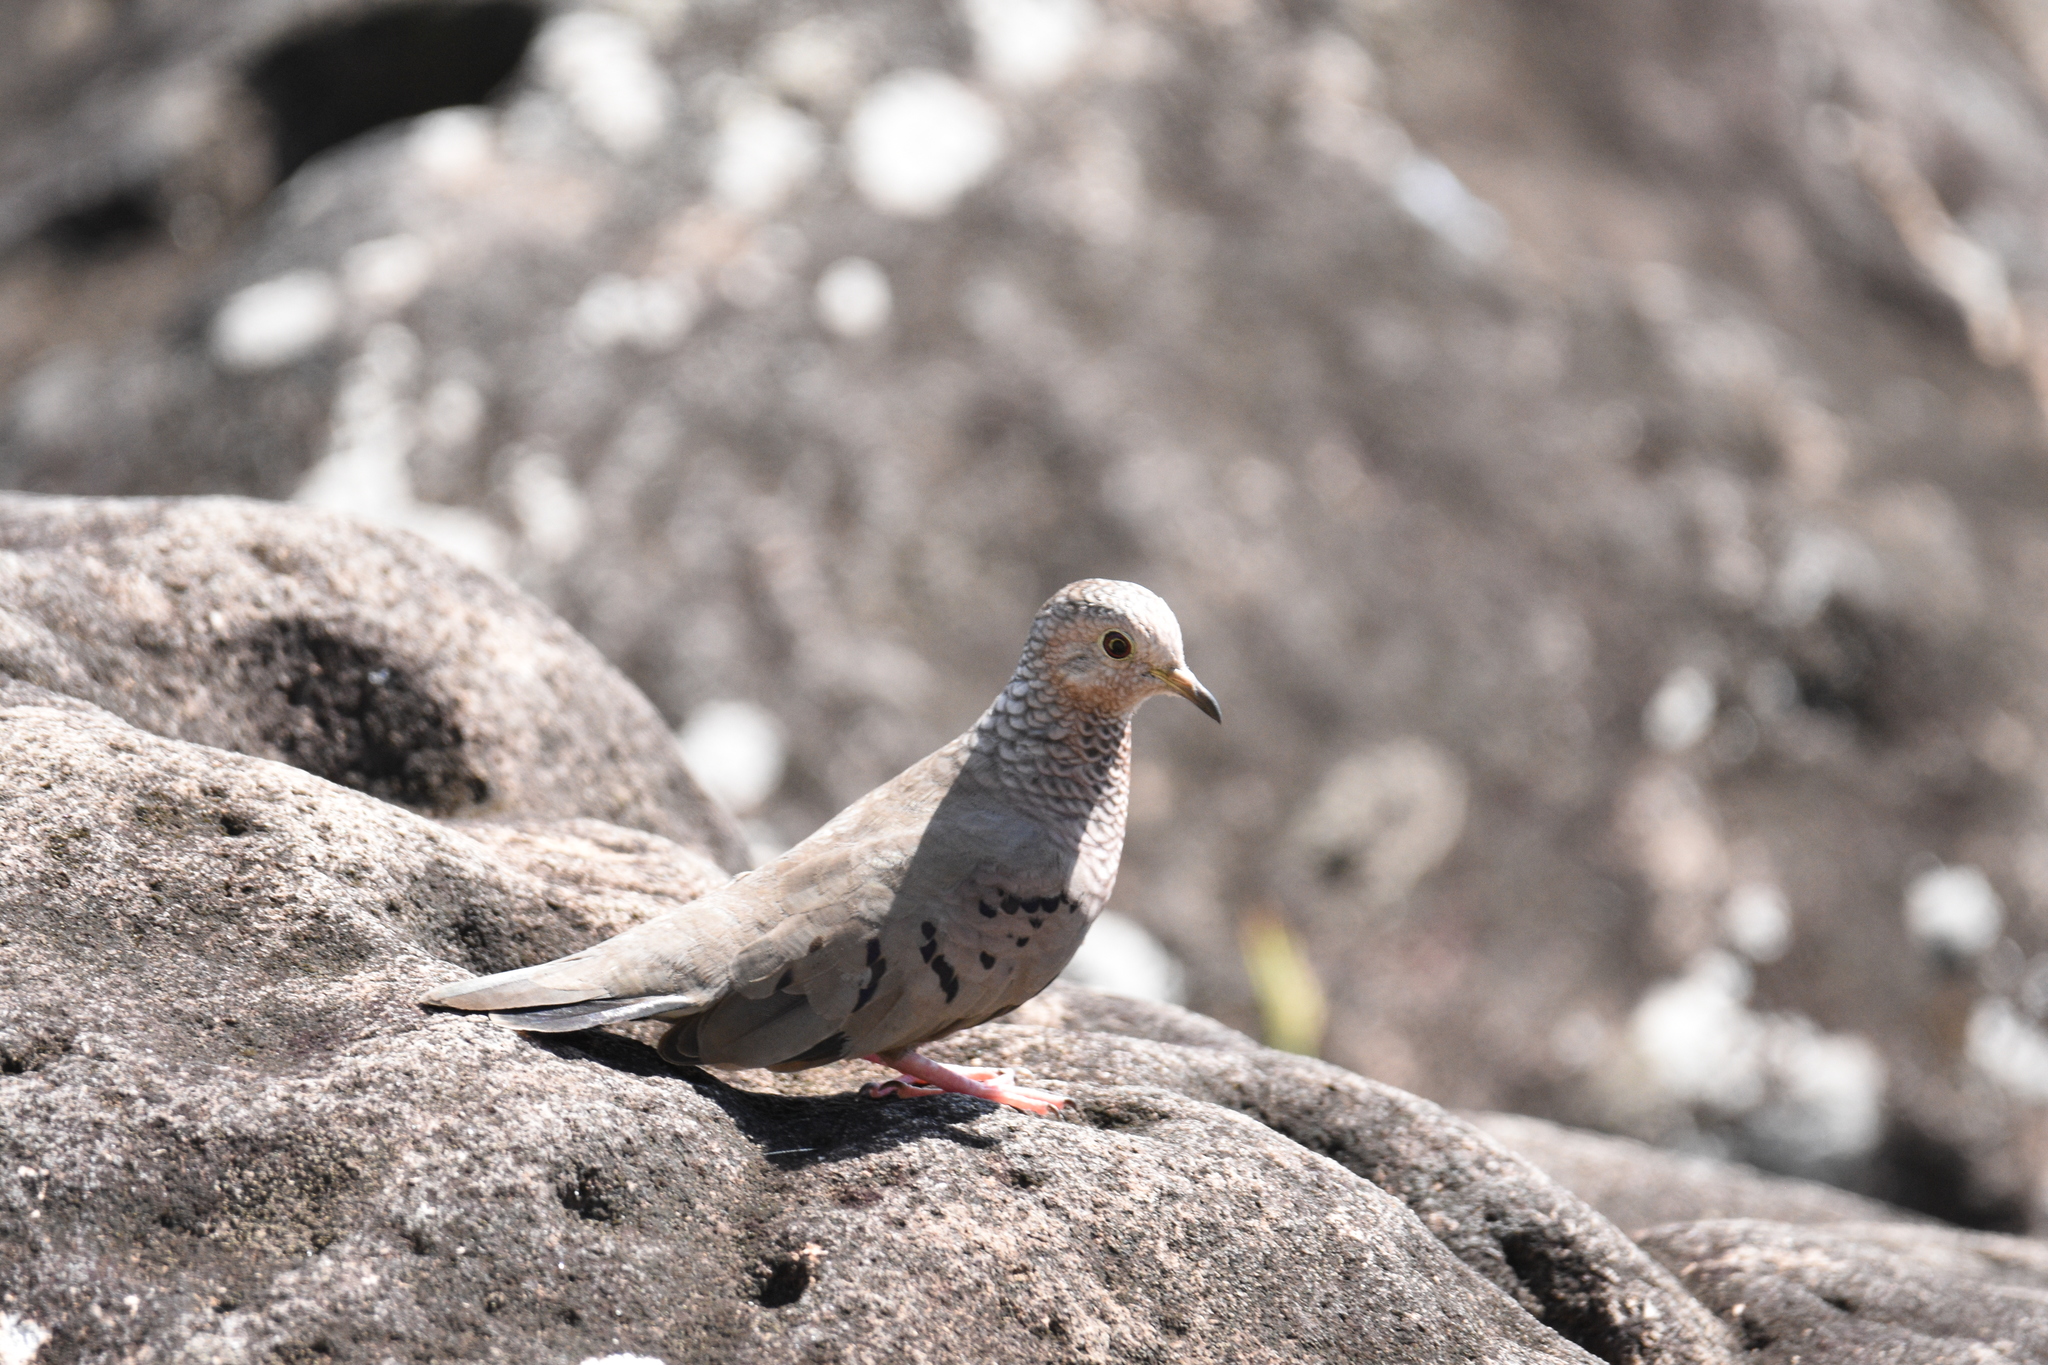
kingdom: Animalia
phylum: Chordata
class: Aves
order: Columbiformes
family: Columbidae
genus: Columbina
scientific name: Columbina passerina
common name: Common ground-dove
